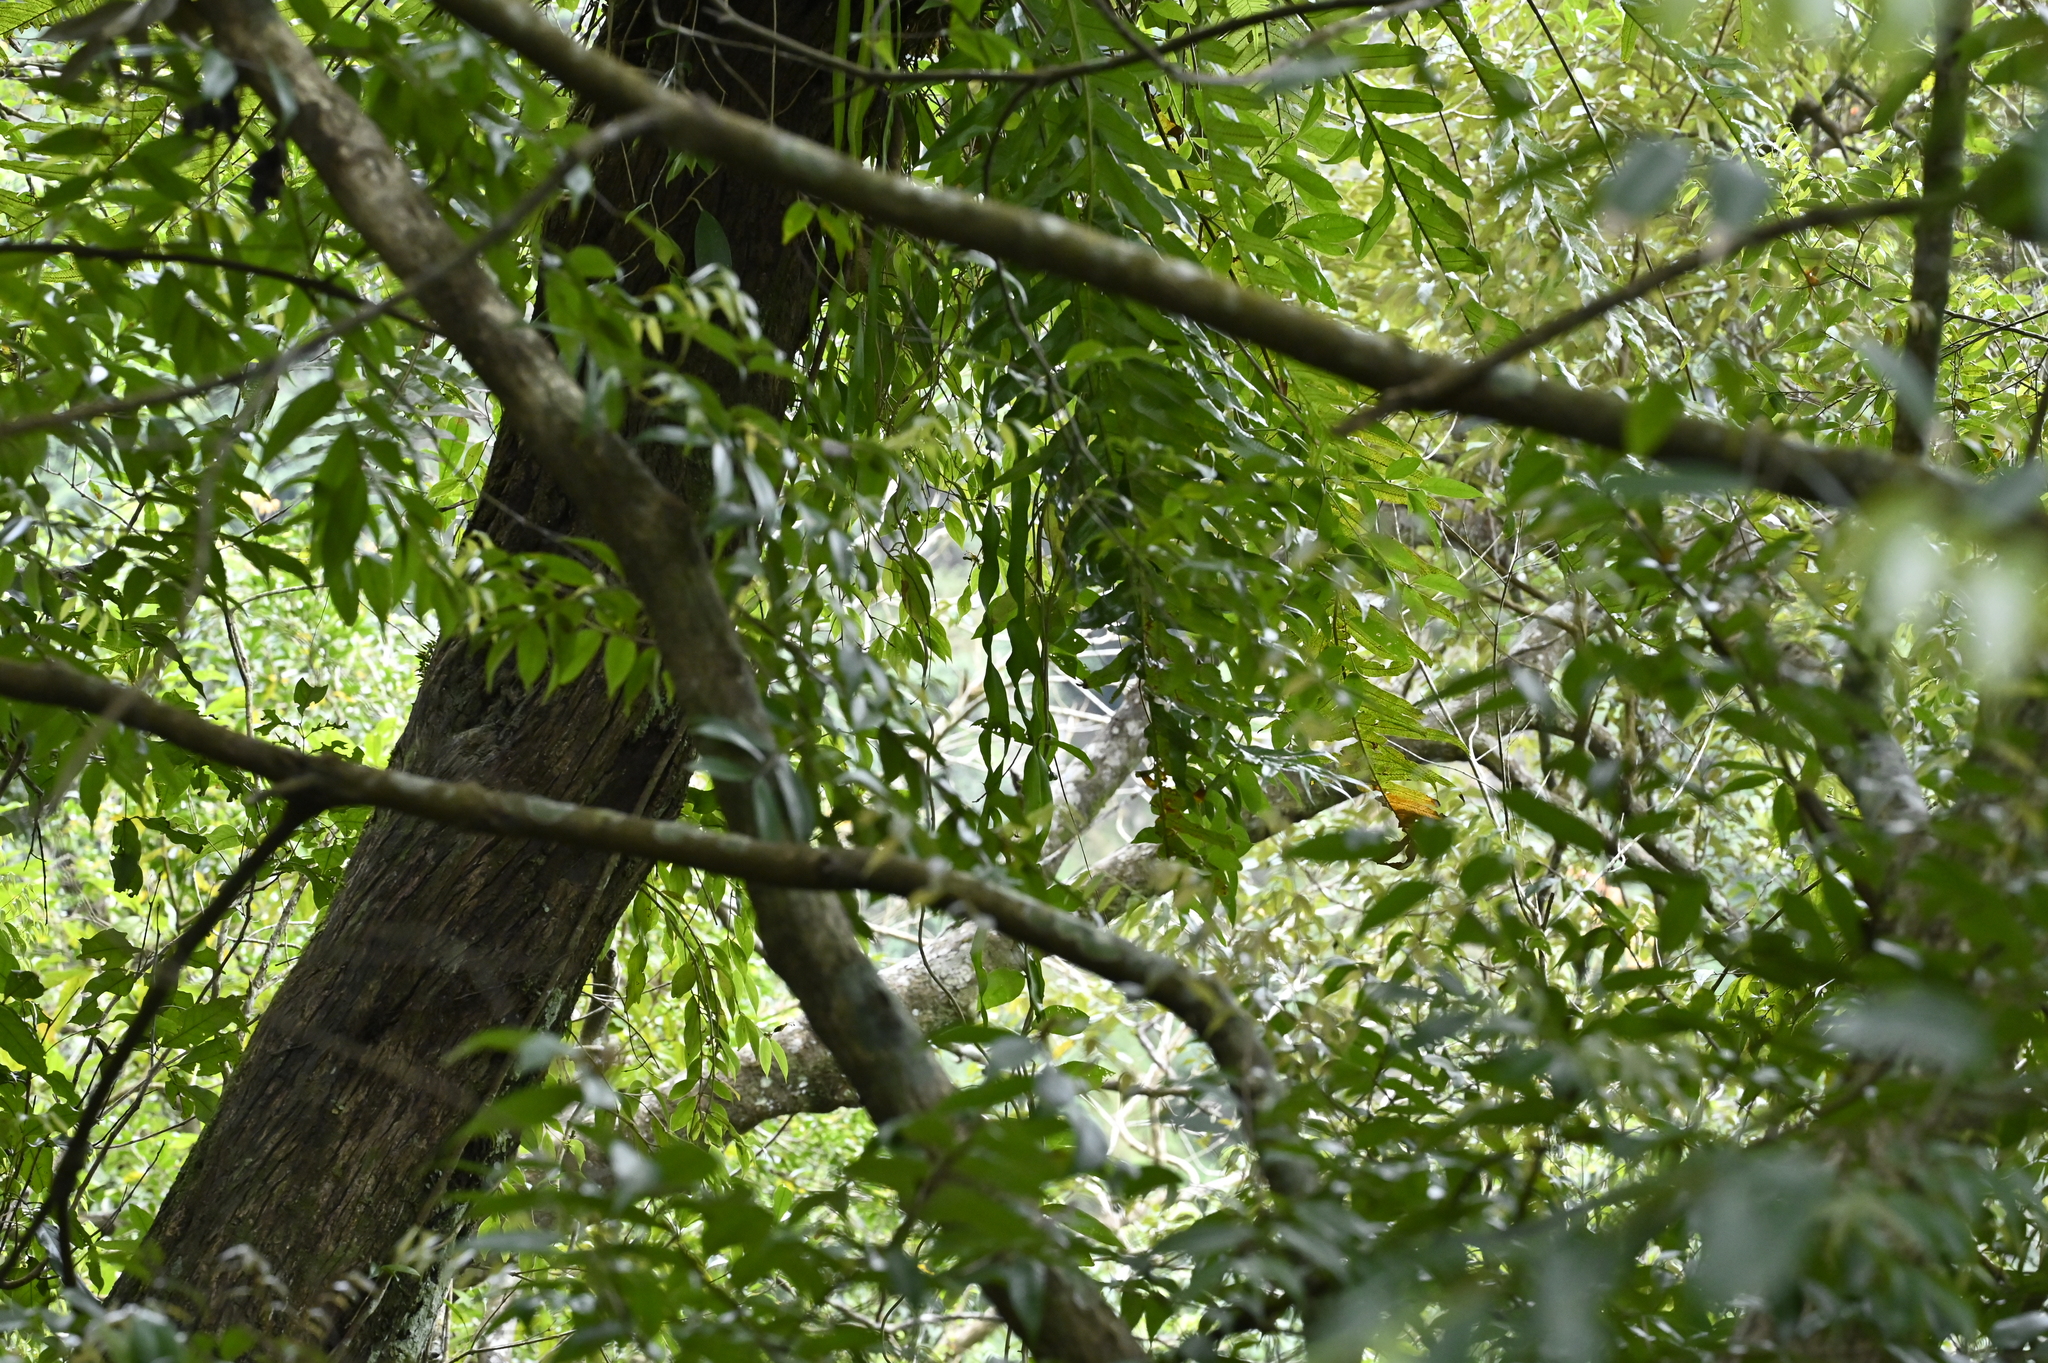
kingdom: Plantae
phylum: Tracheophyta
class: Polypodiopsida
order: Ophioglossales
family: Ophioglossaceae
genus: Ophioderma
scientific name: Ophioderma pendulum
